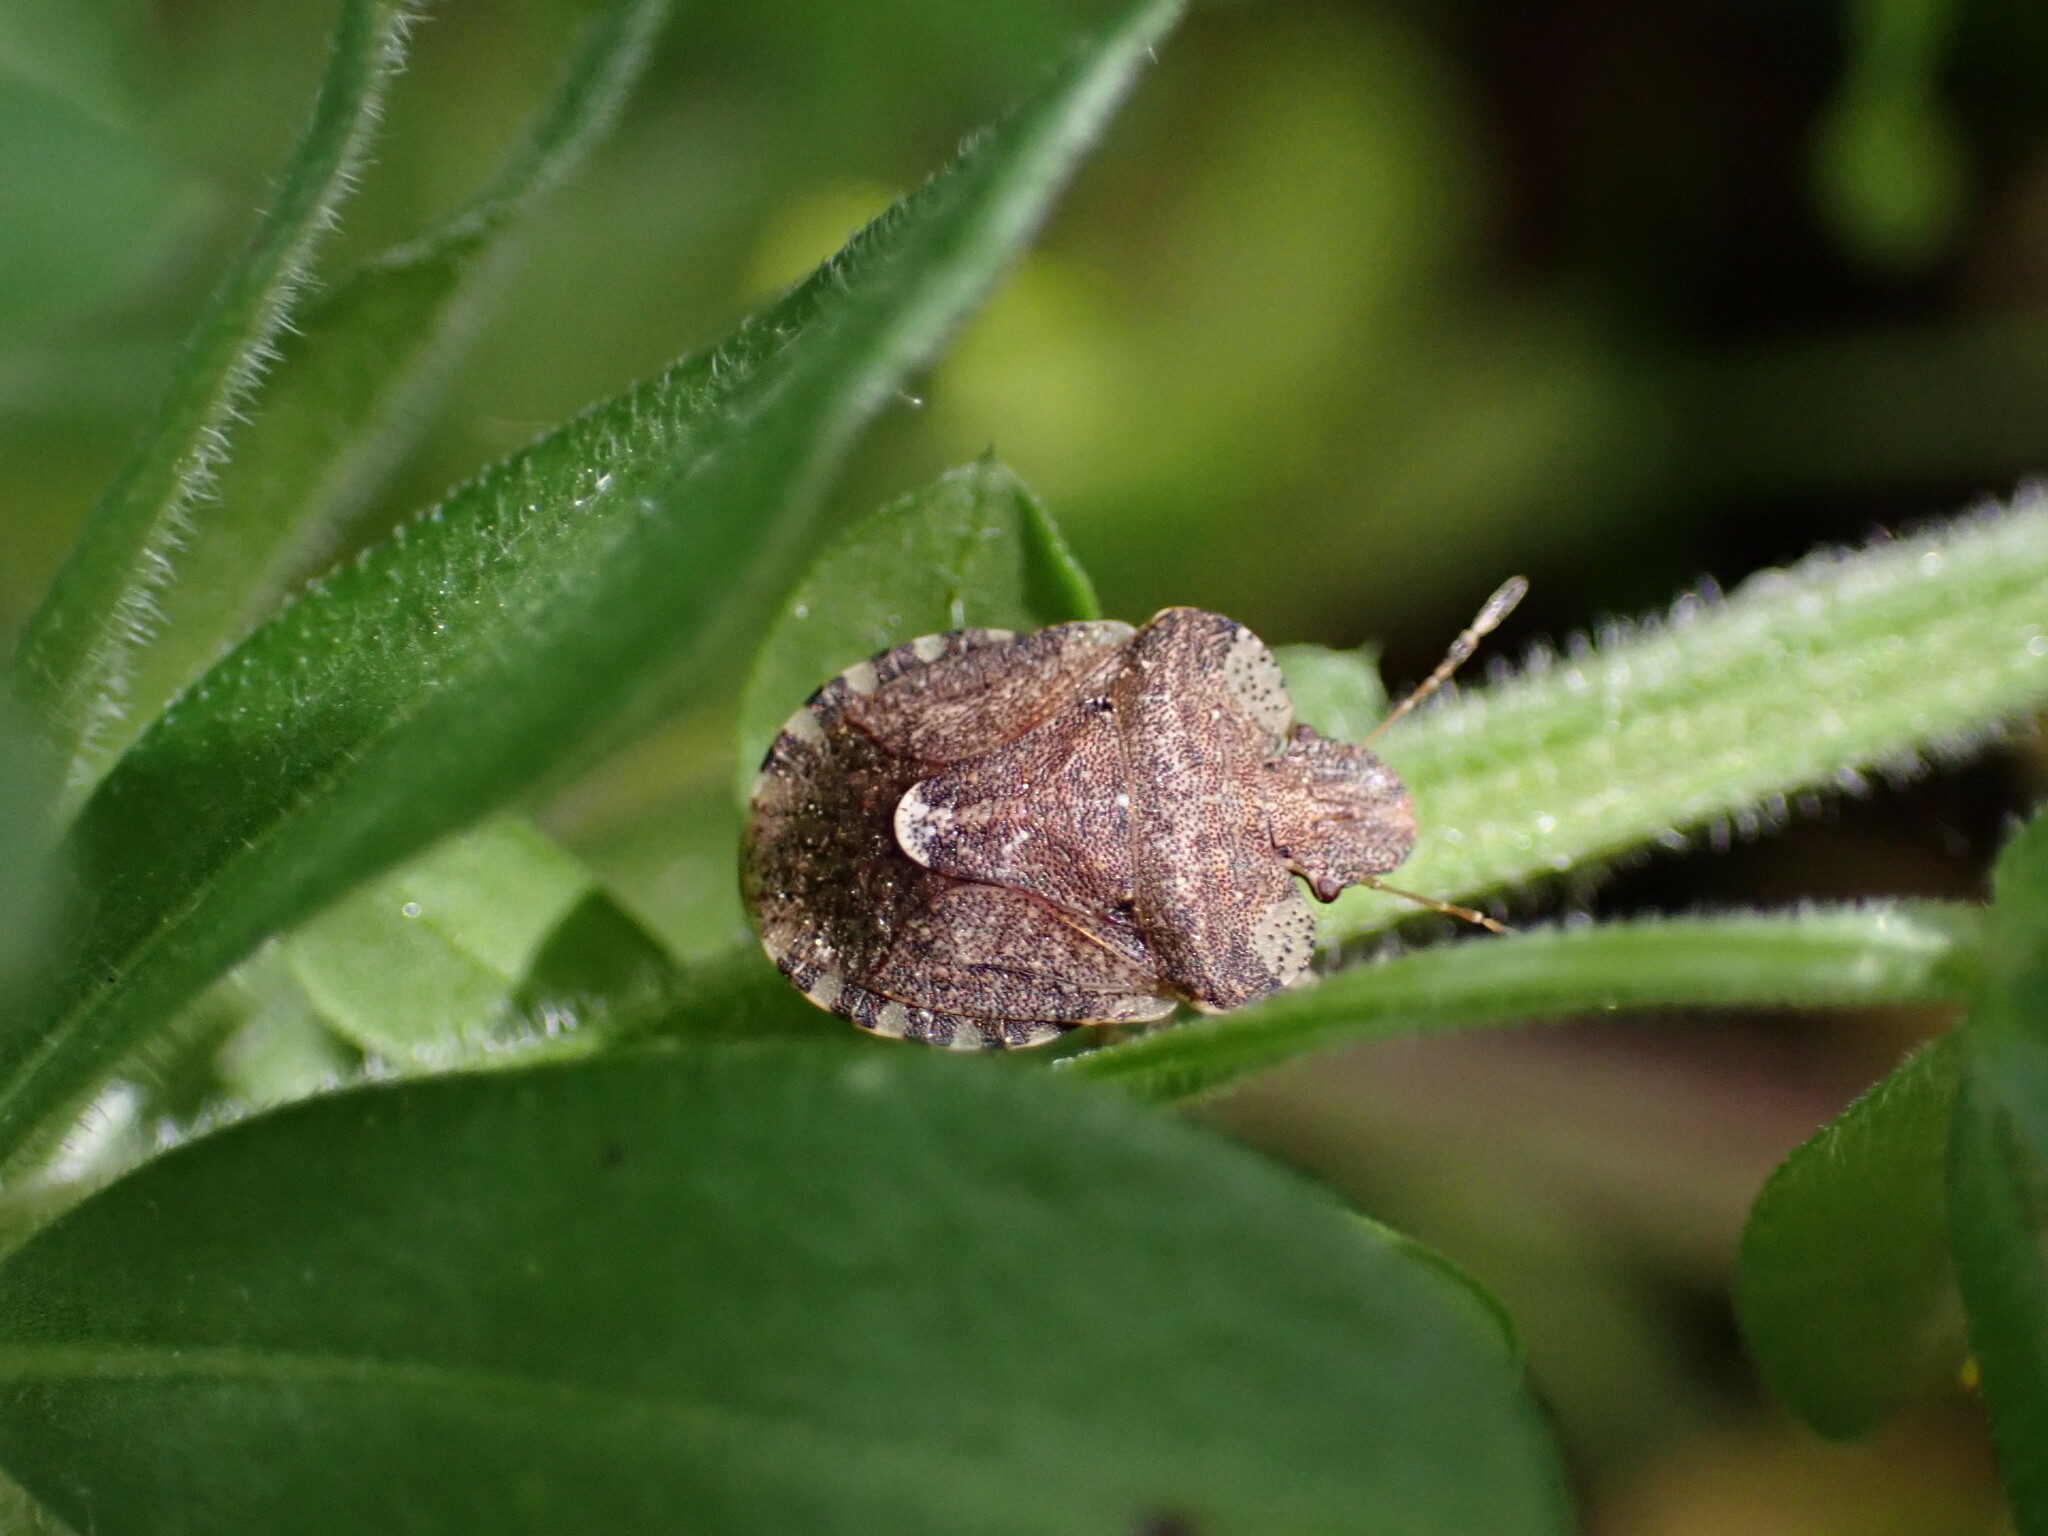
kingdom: Animalia
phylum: Arthropoda
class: Insecta
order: Hemiptera
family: Pentatomidae
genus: Dyroderes
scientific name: Dyroderes umbraculatus
